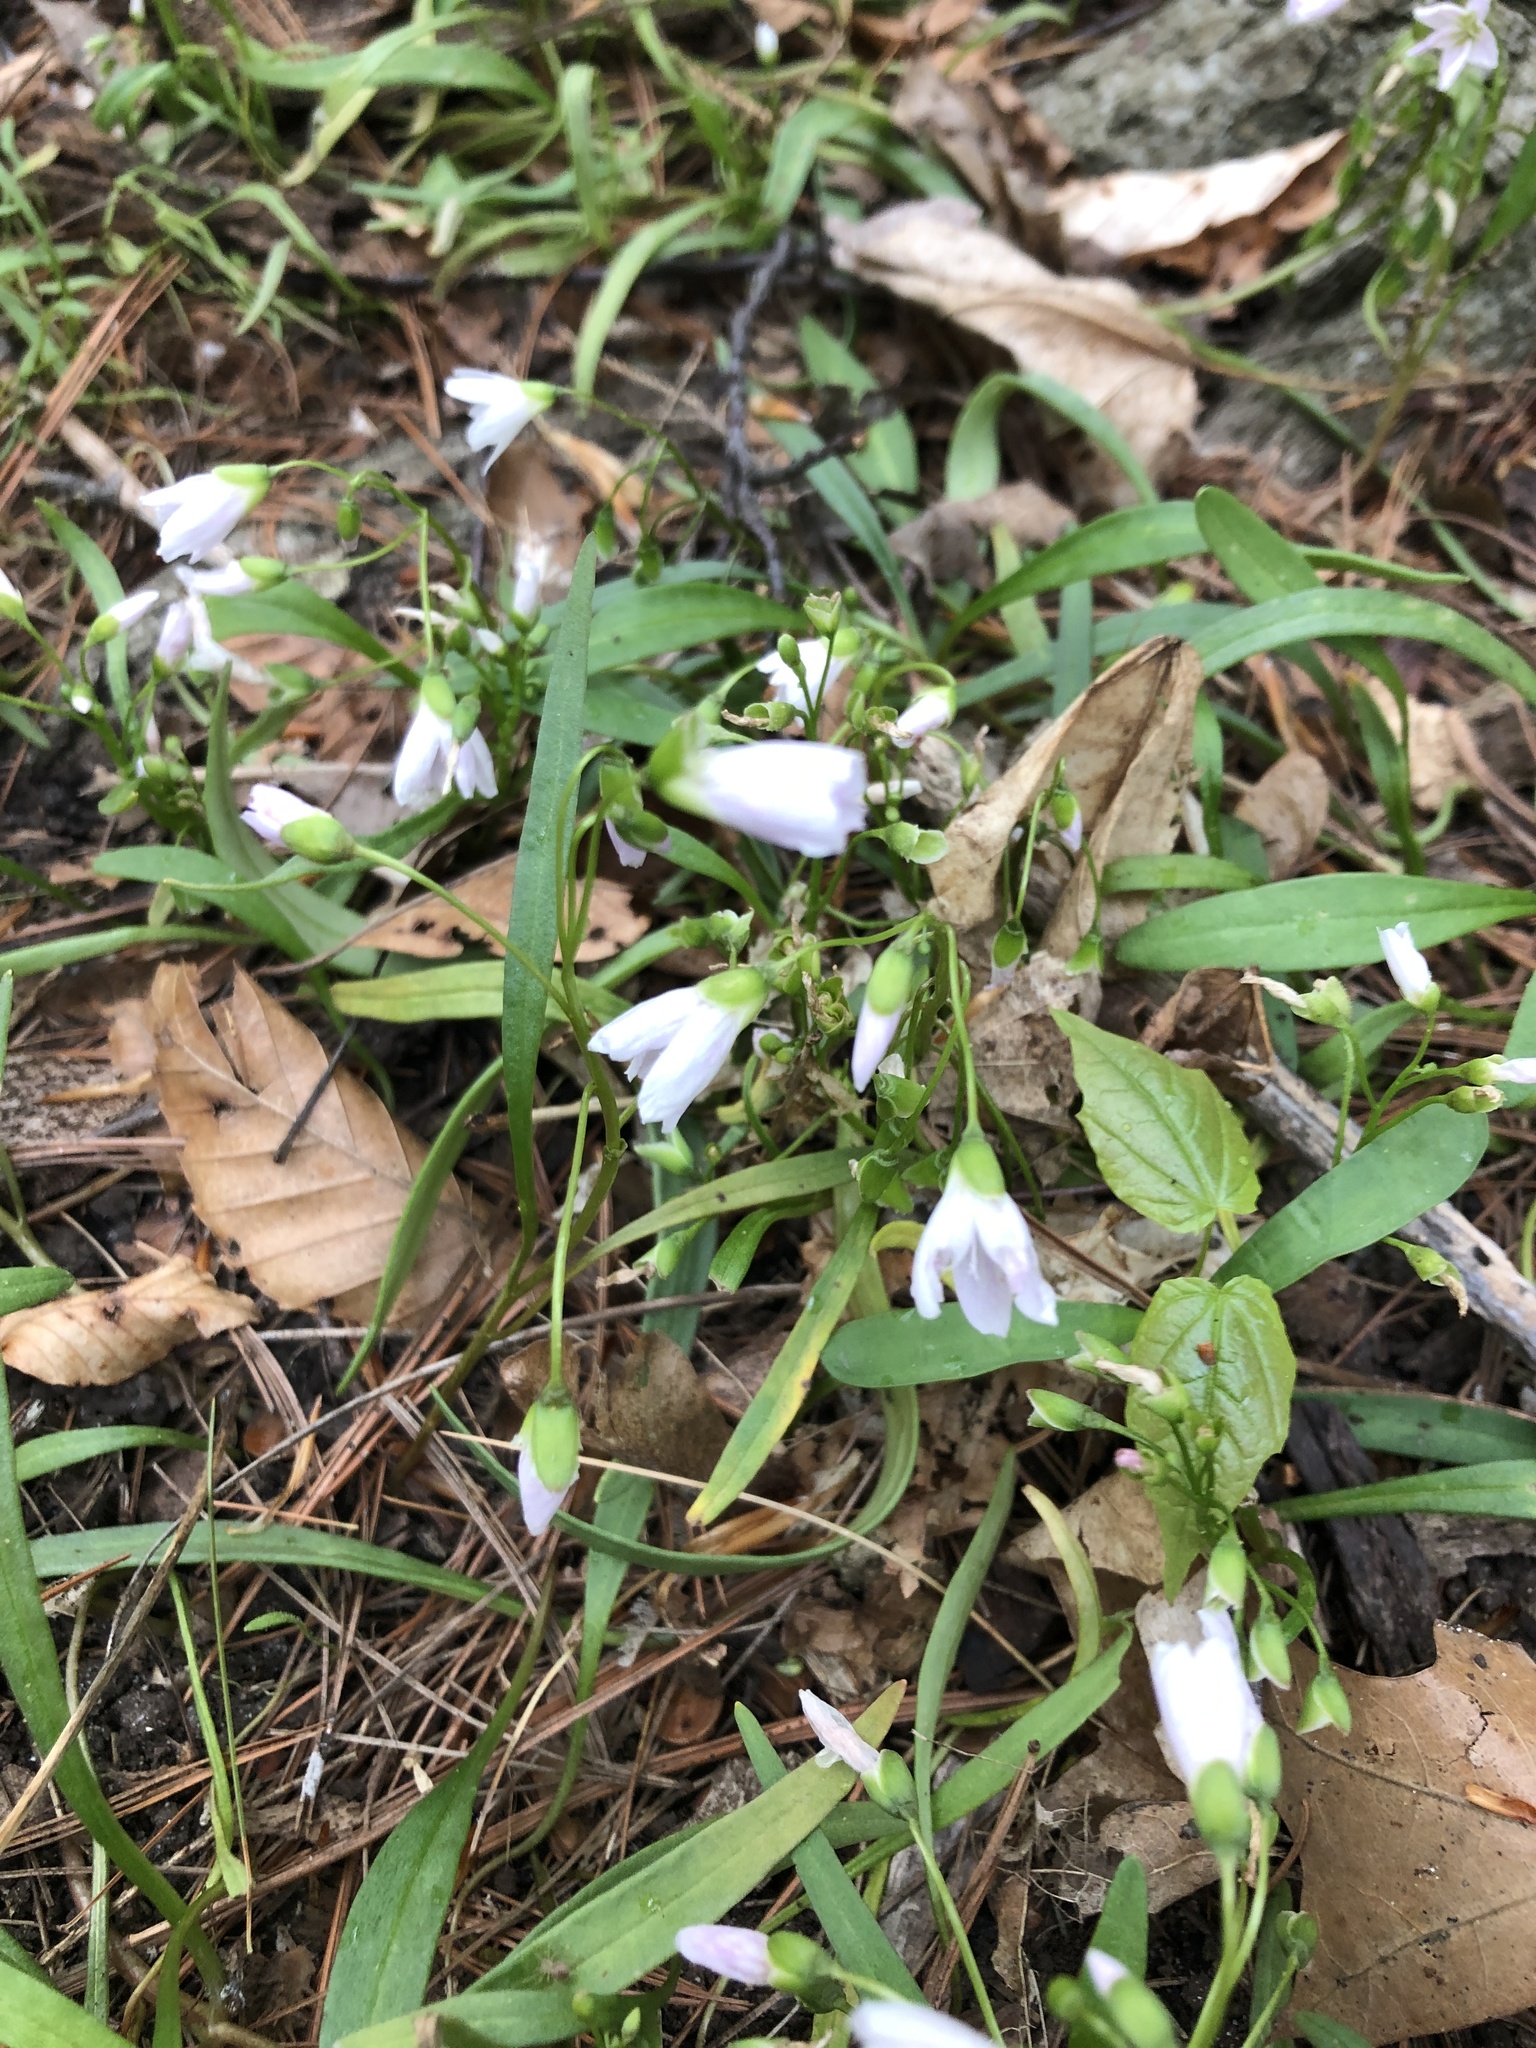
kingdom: Plantae
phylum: Tracheophyta
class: Magnoliopsida
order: Caryophyllales
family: Montiaceae
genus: Claytonia
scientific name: Claytonia virginica
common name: Virginia springbeauty
